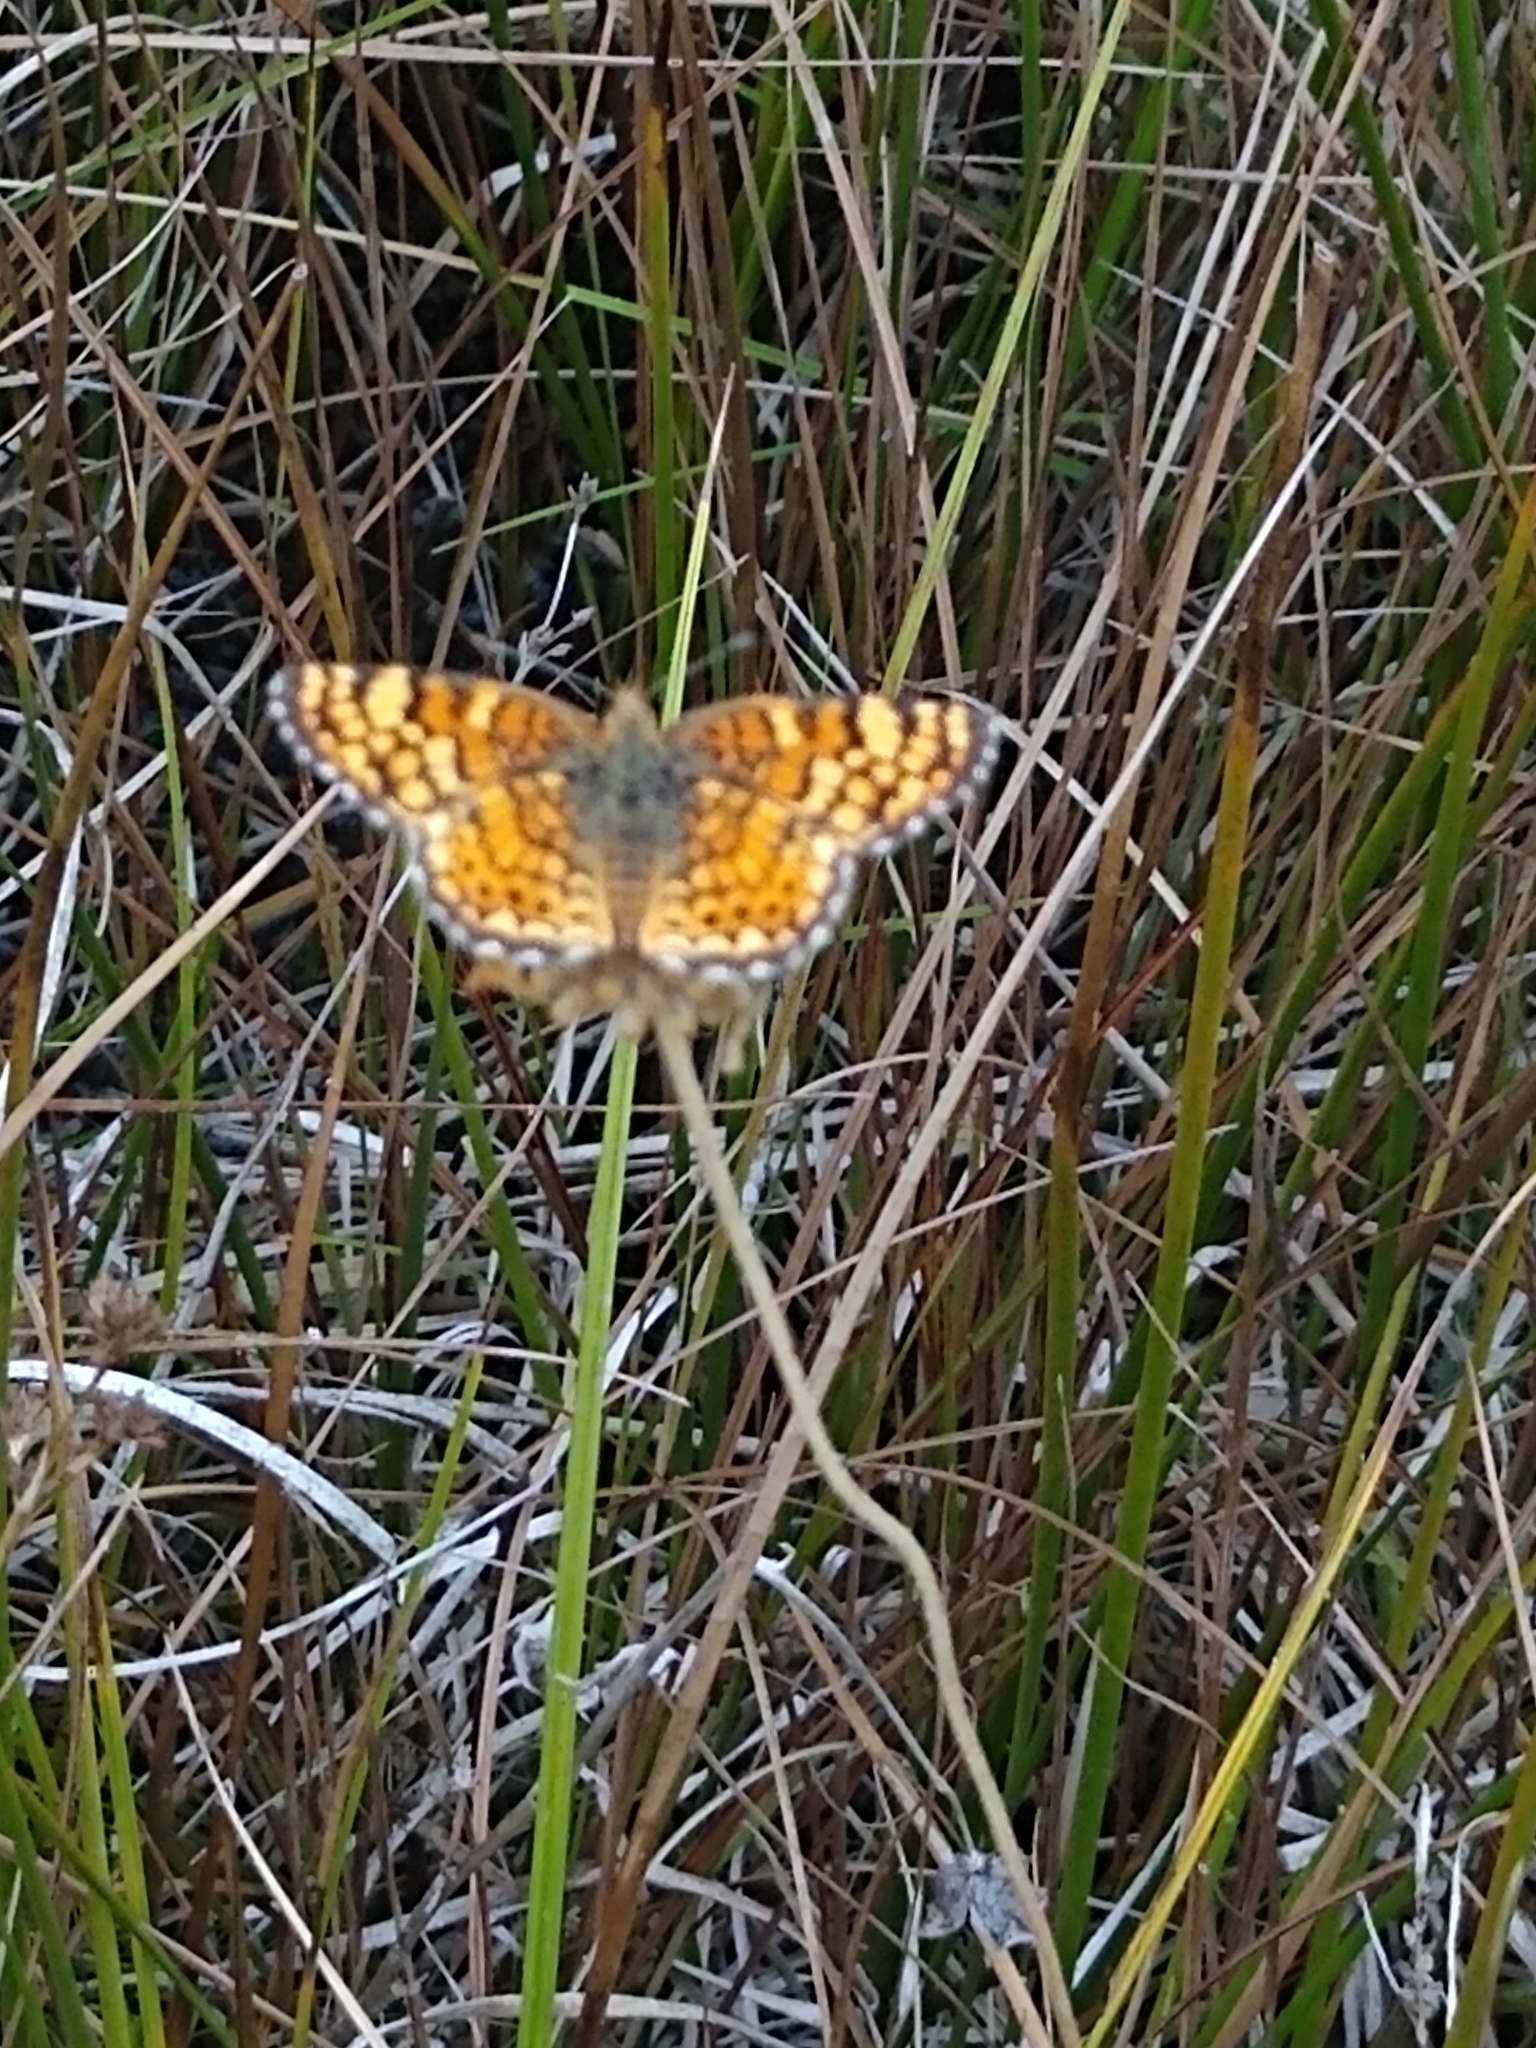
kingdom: Animalia
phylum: Arthropoda
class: Insecta
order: Lepidoptera
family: Nymphalidae
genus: Eresia
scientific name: Eresia aveyrona
